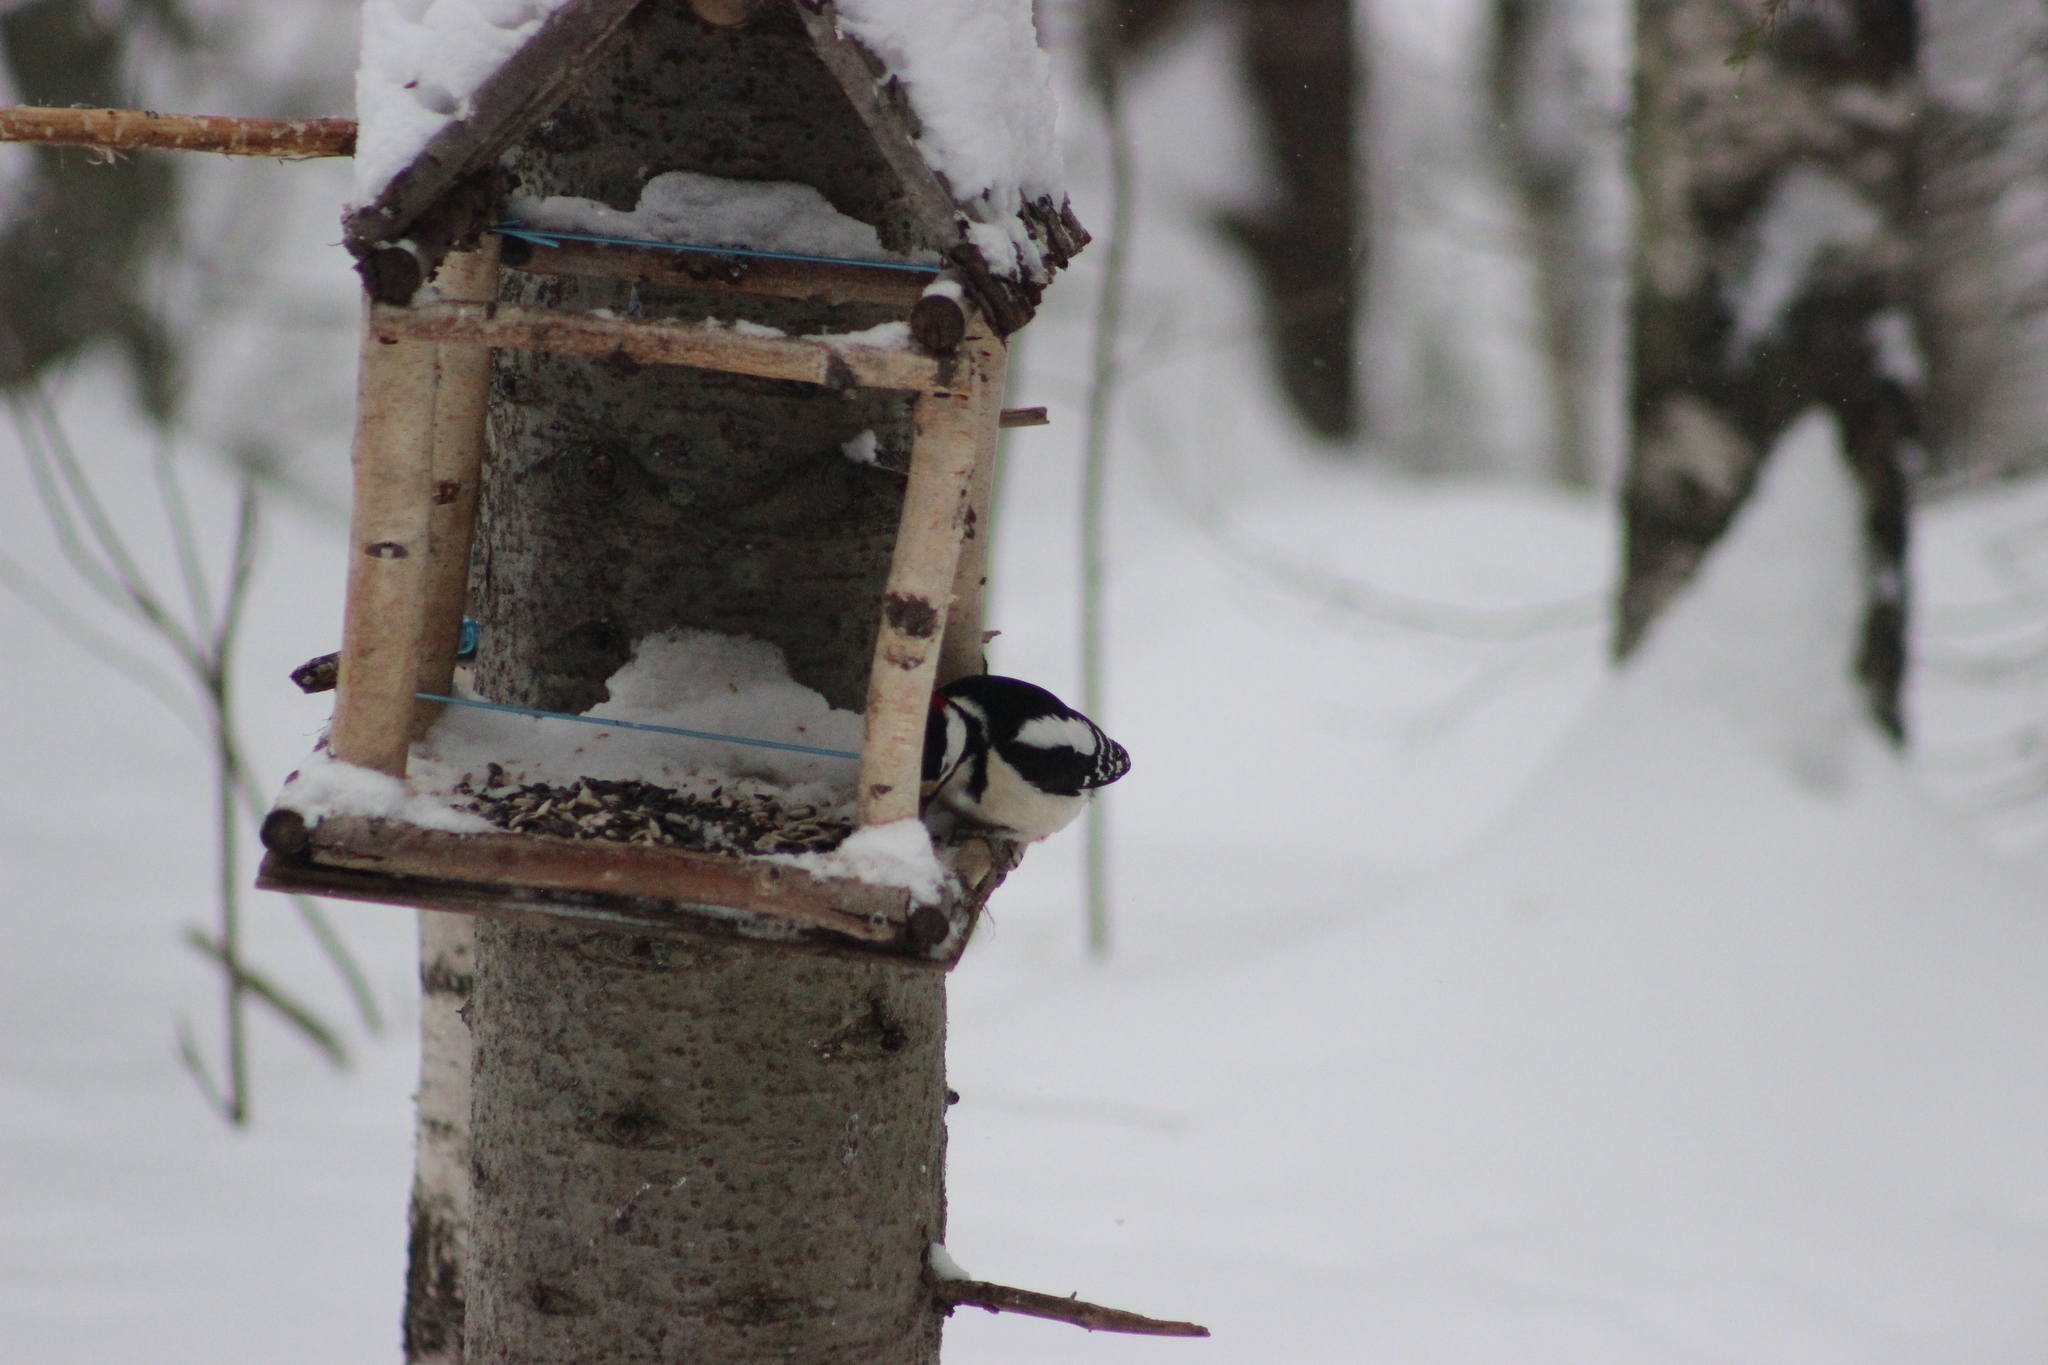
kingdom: Animalia
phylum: Chordata
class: Aves
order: Piciformes
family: Picidae
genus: Dendrocopos
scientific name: Dendrocopos major
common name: Great spotted woodpecker
